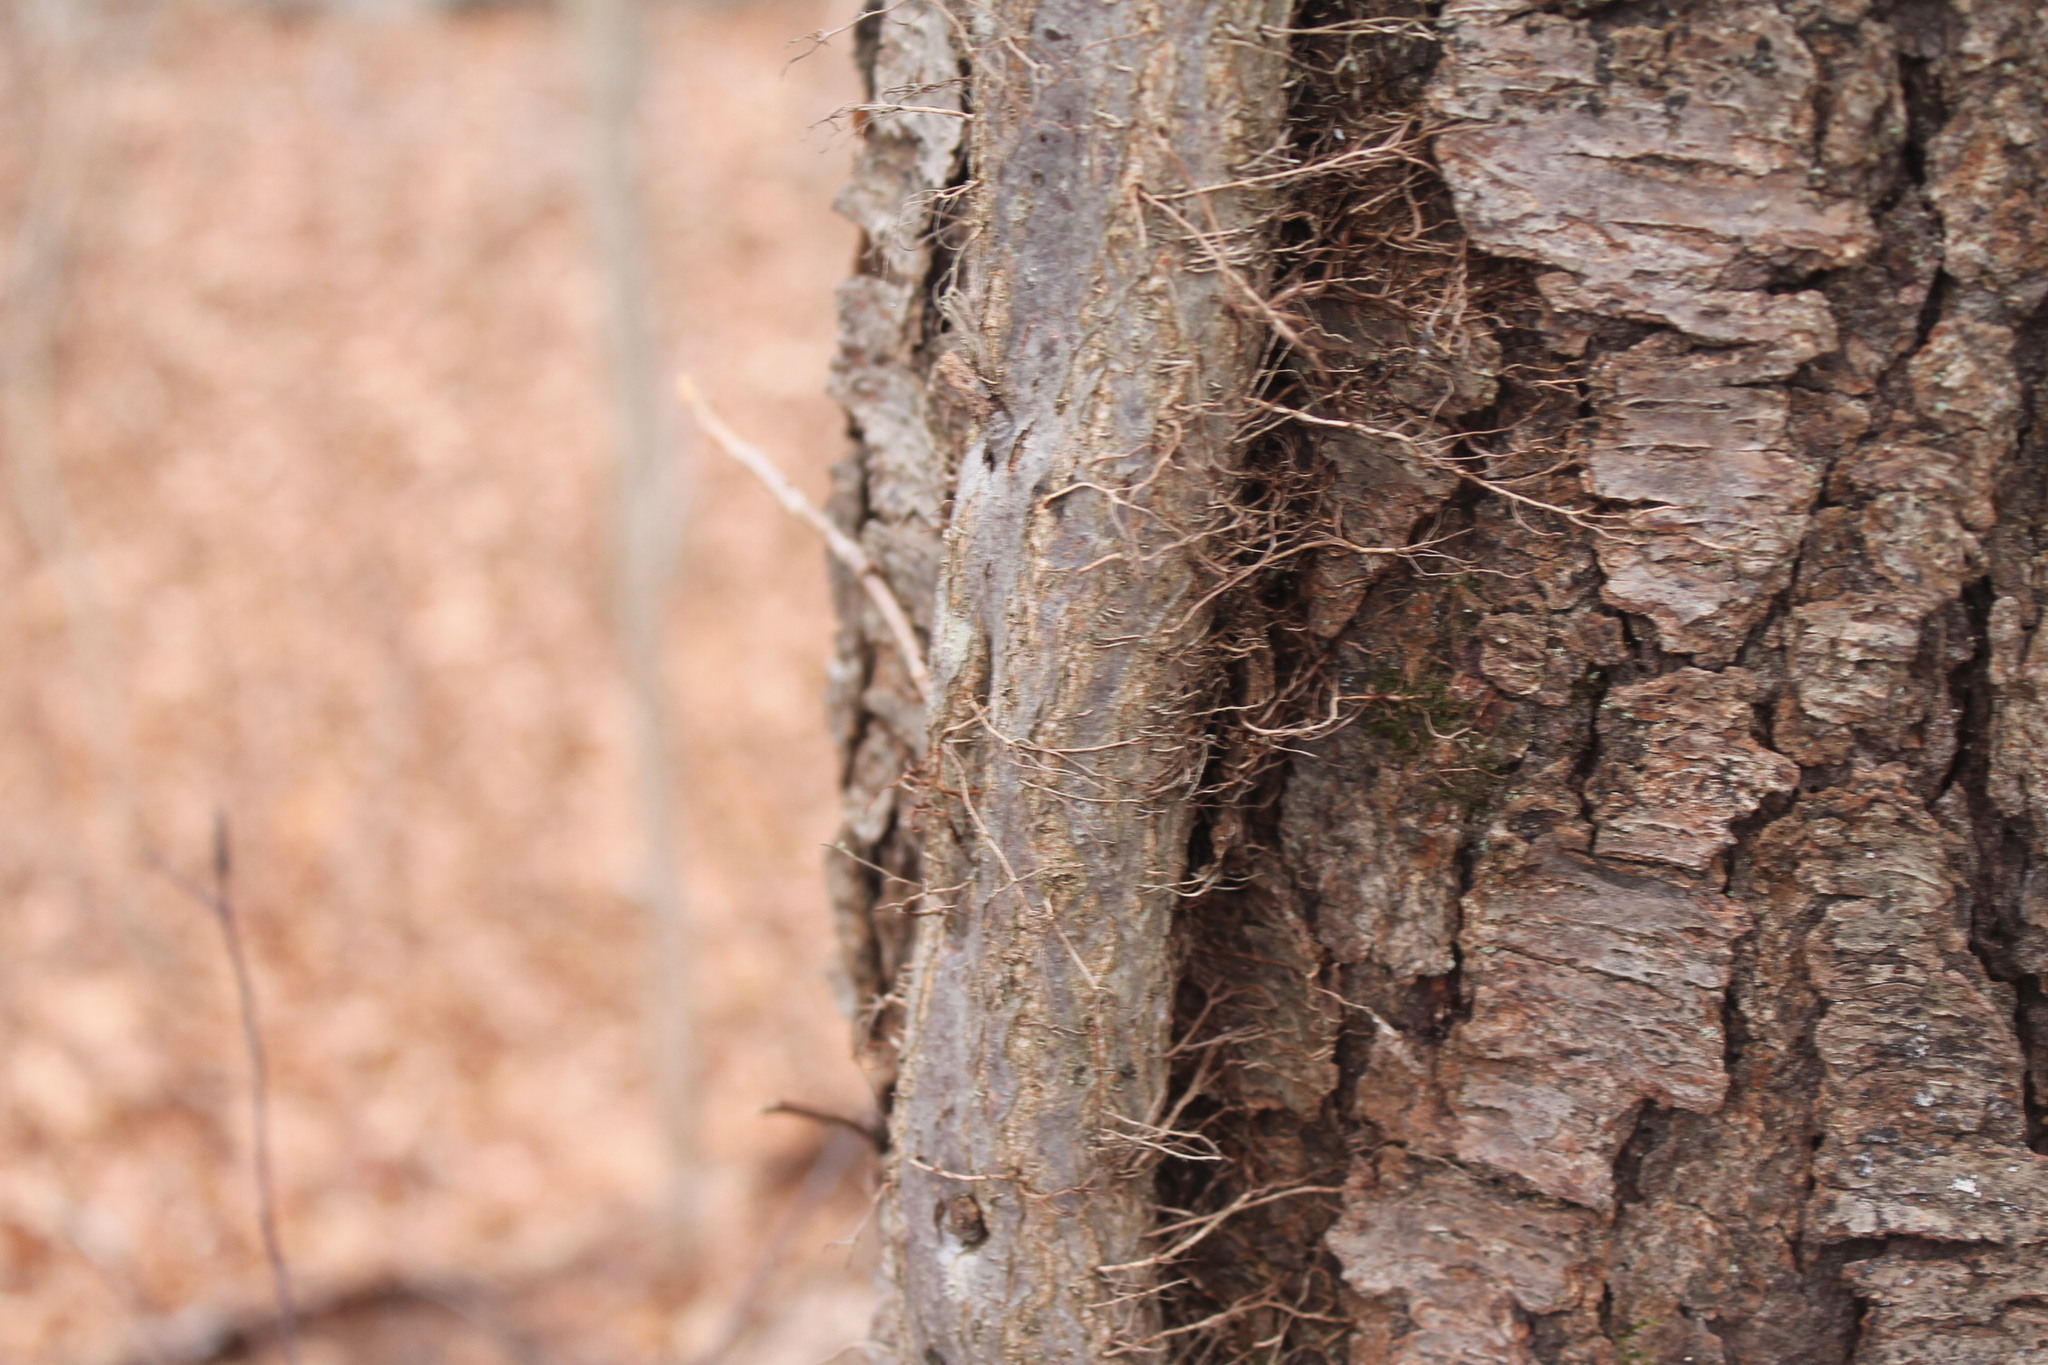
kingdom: Plantae
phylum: Tracheophyta
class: Magnoliopsida
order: Sapindales
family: Anacardiaceae
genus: Toxicodendron
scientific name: Toxicodendron radicans
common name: Poison ivy
